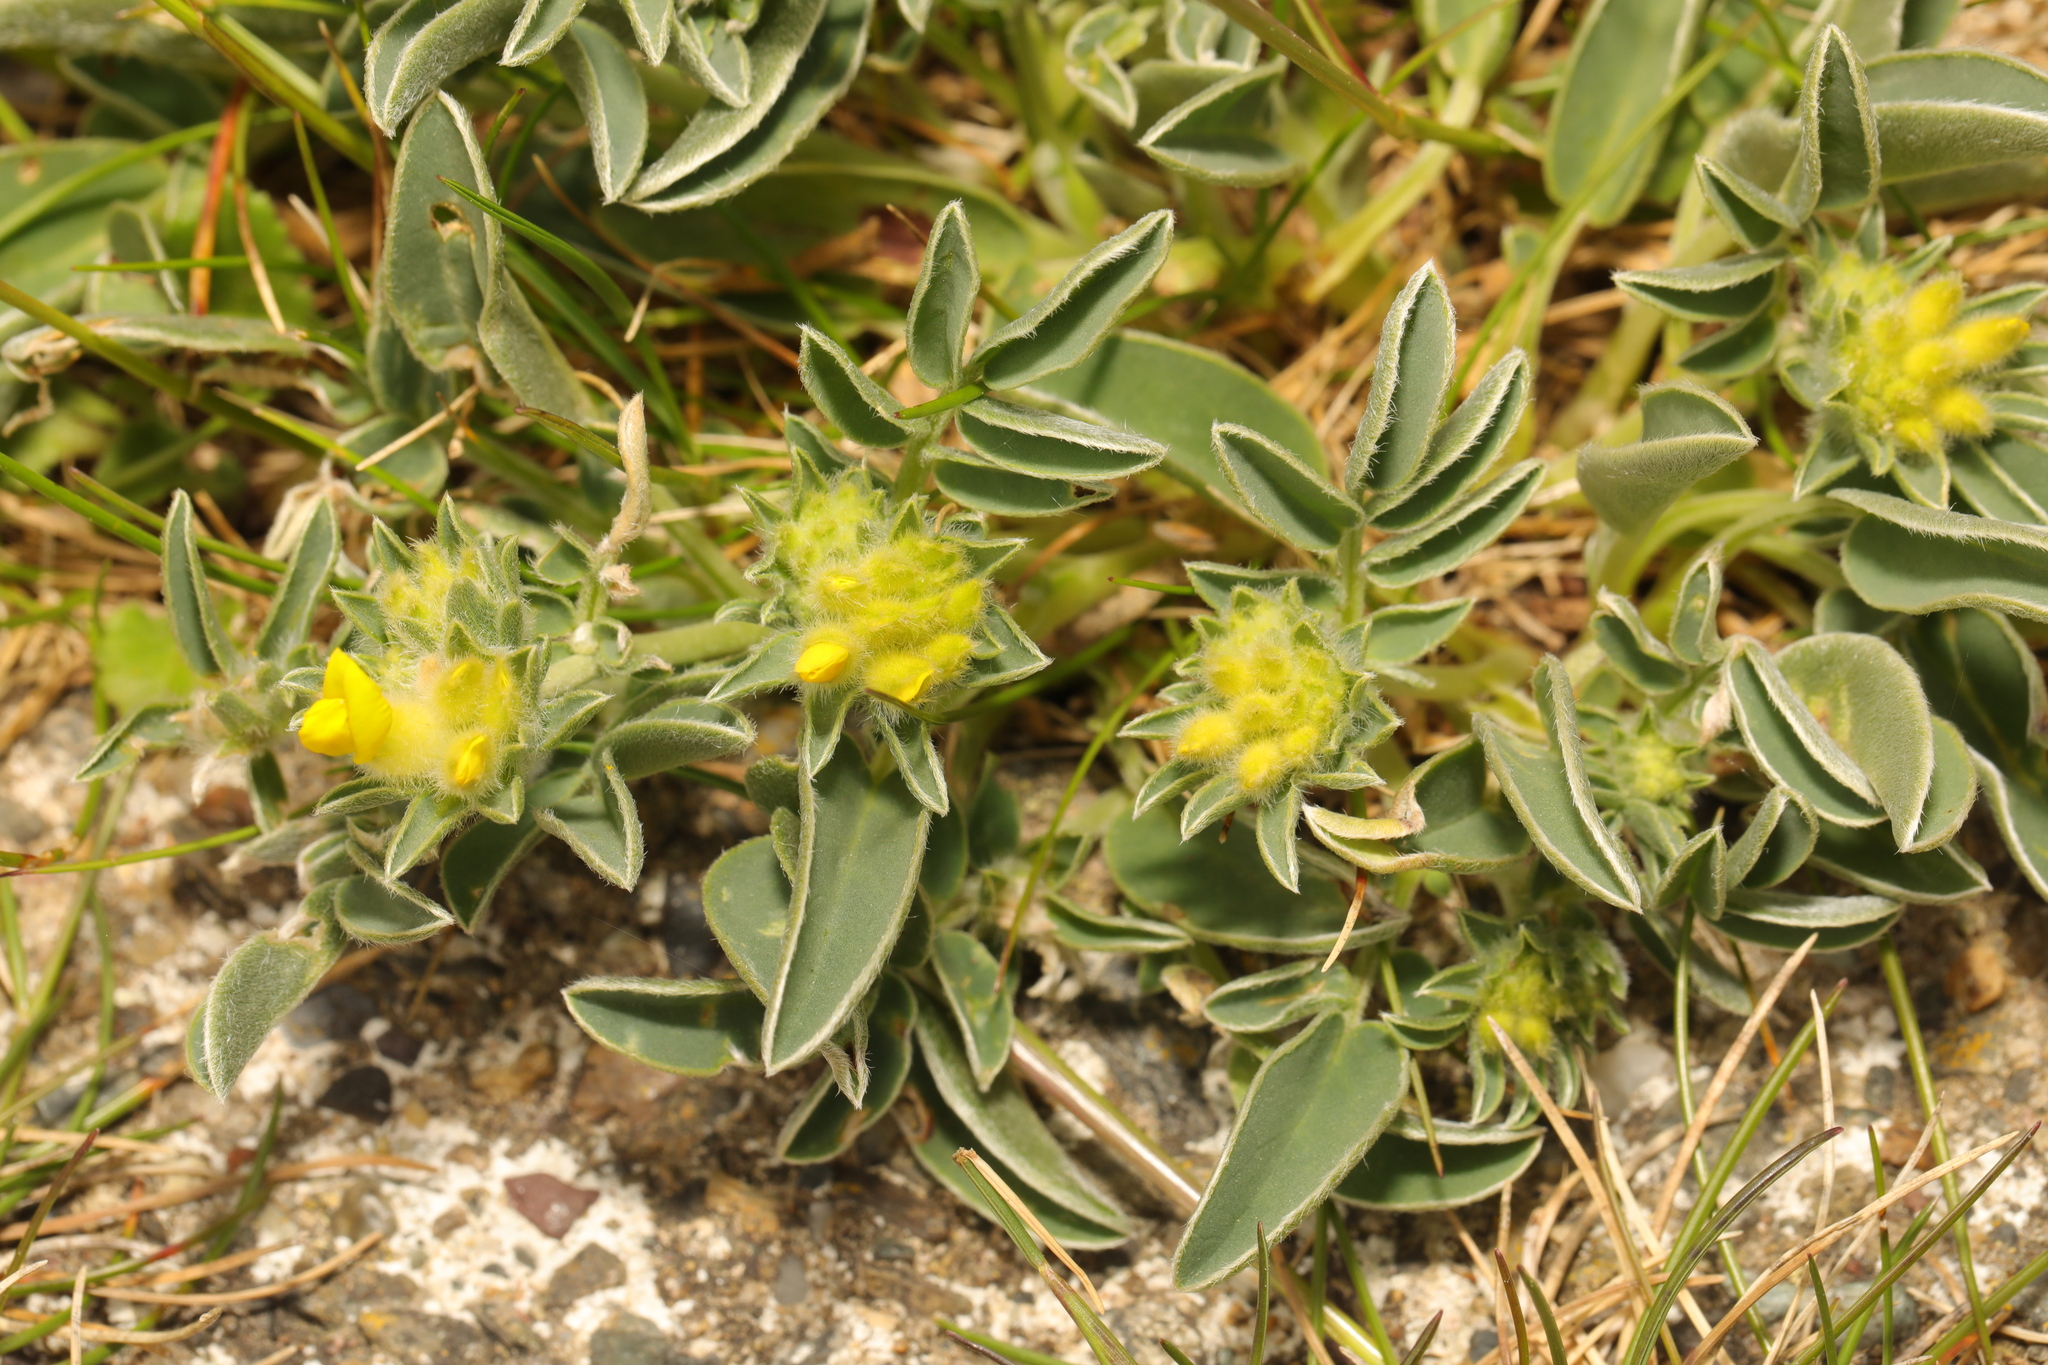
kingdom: Plantae
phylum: Tracheophyta
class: Magnoliopsida
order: Fabales
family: Fabaceae
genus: Anthyllis
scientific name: Anthyllis vulneraria
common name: Kidney vetch
